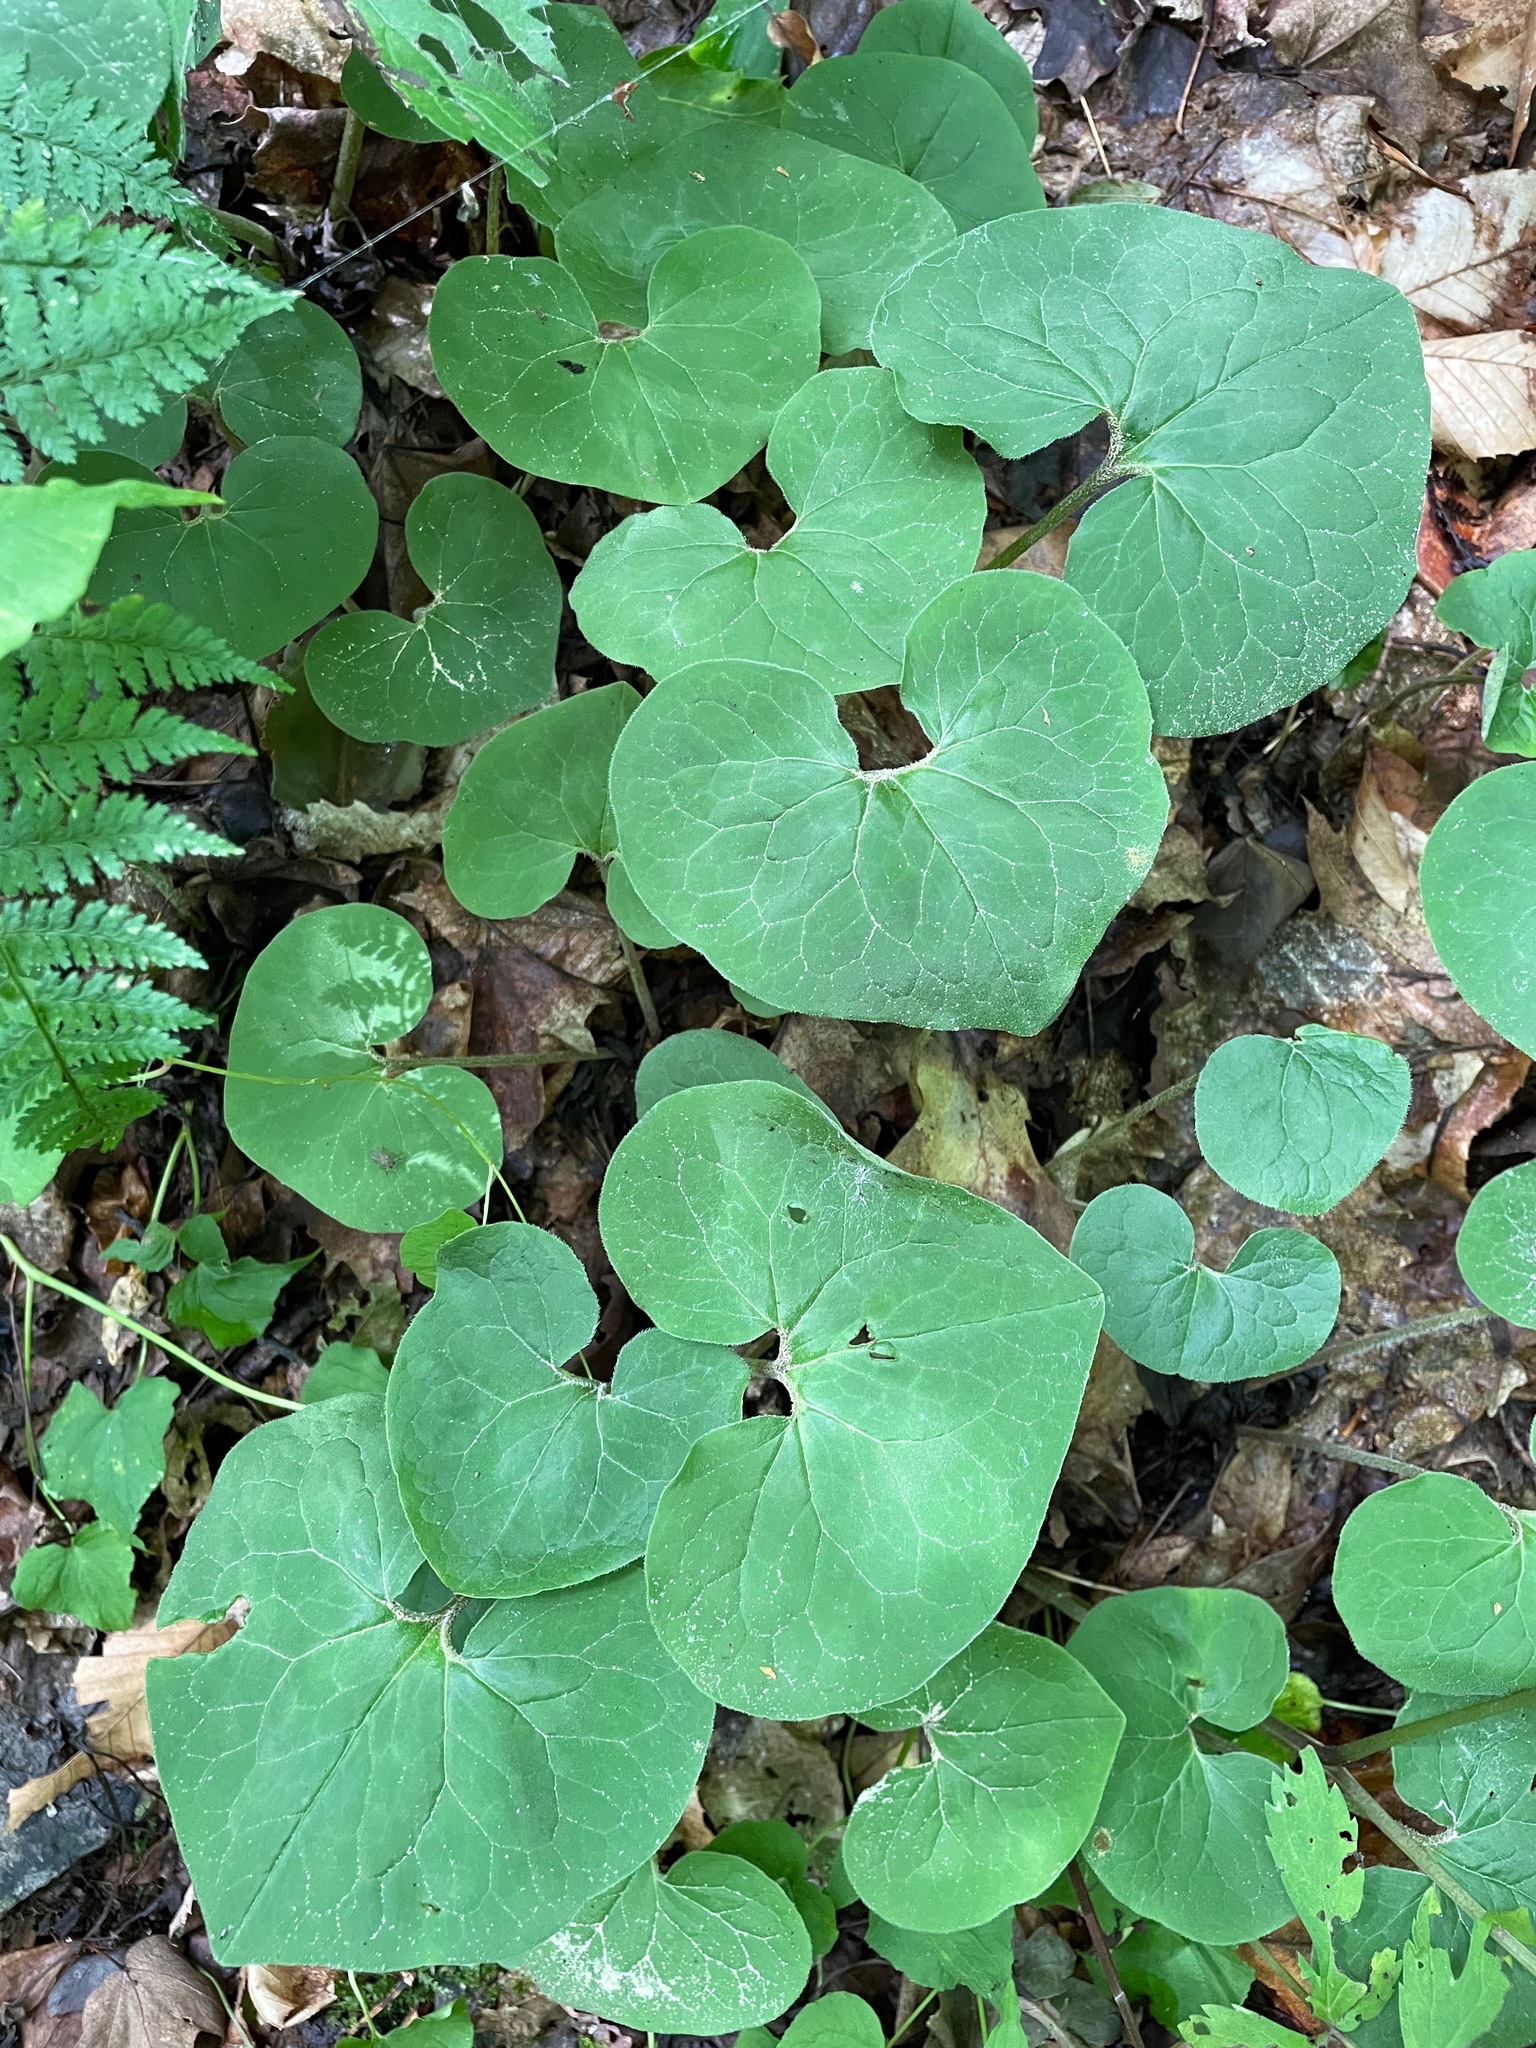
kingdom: Plantae
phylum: Tracheophyta
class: Magnoliopsida
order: Piperales
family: Aristolochiaceae
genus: Asarum
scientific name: Asarum canadense
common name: Wild ginger
